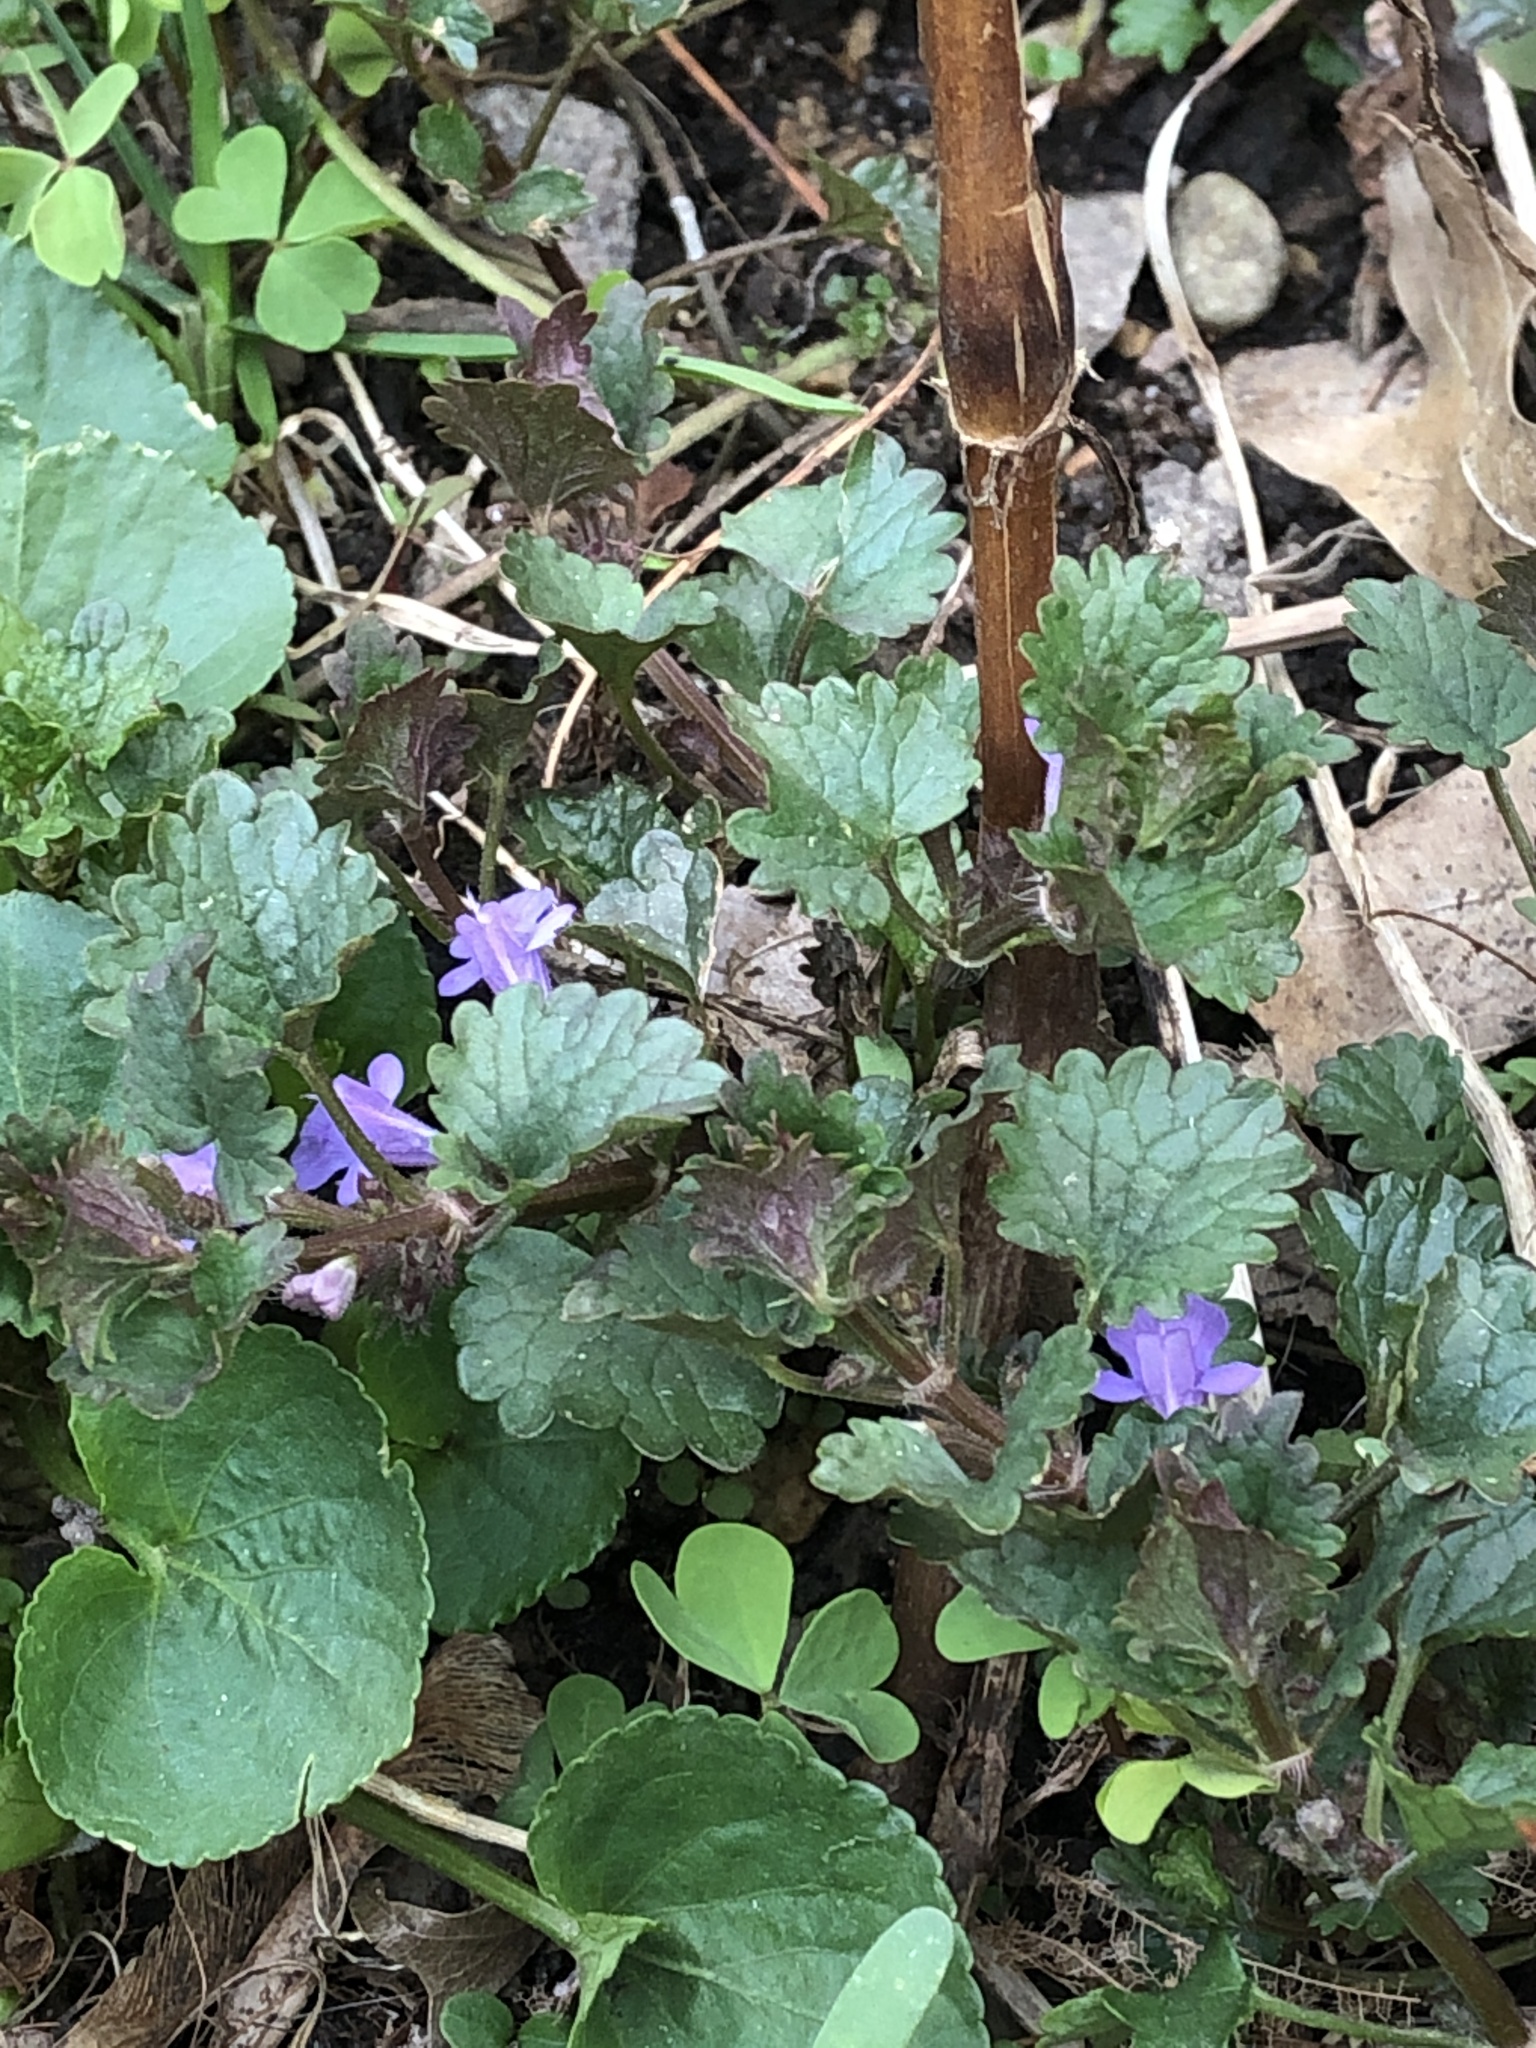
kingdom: Plantae
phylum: Tracheophyta
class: Magnoliopsida
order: Lamiales
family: Lamiaceae
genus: Glechoma
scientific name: Glechoma hederacea
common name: Ground ivy
